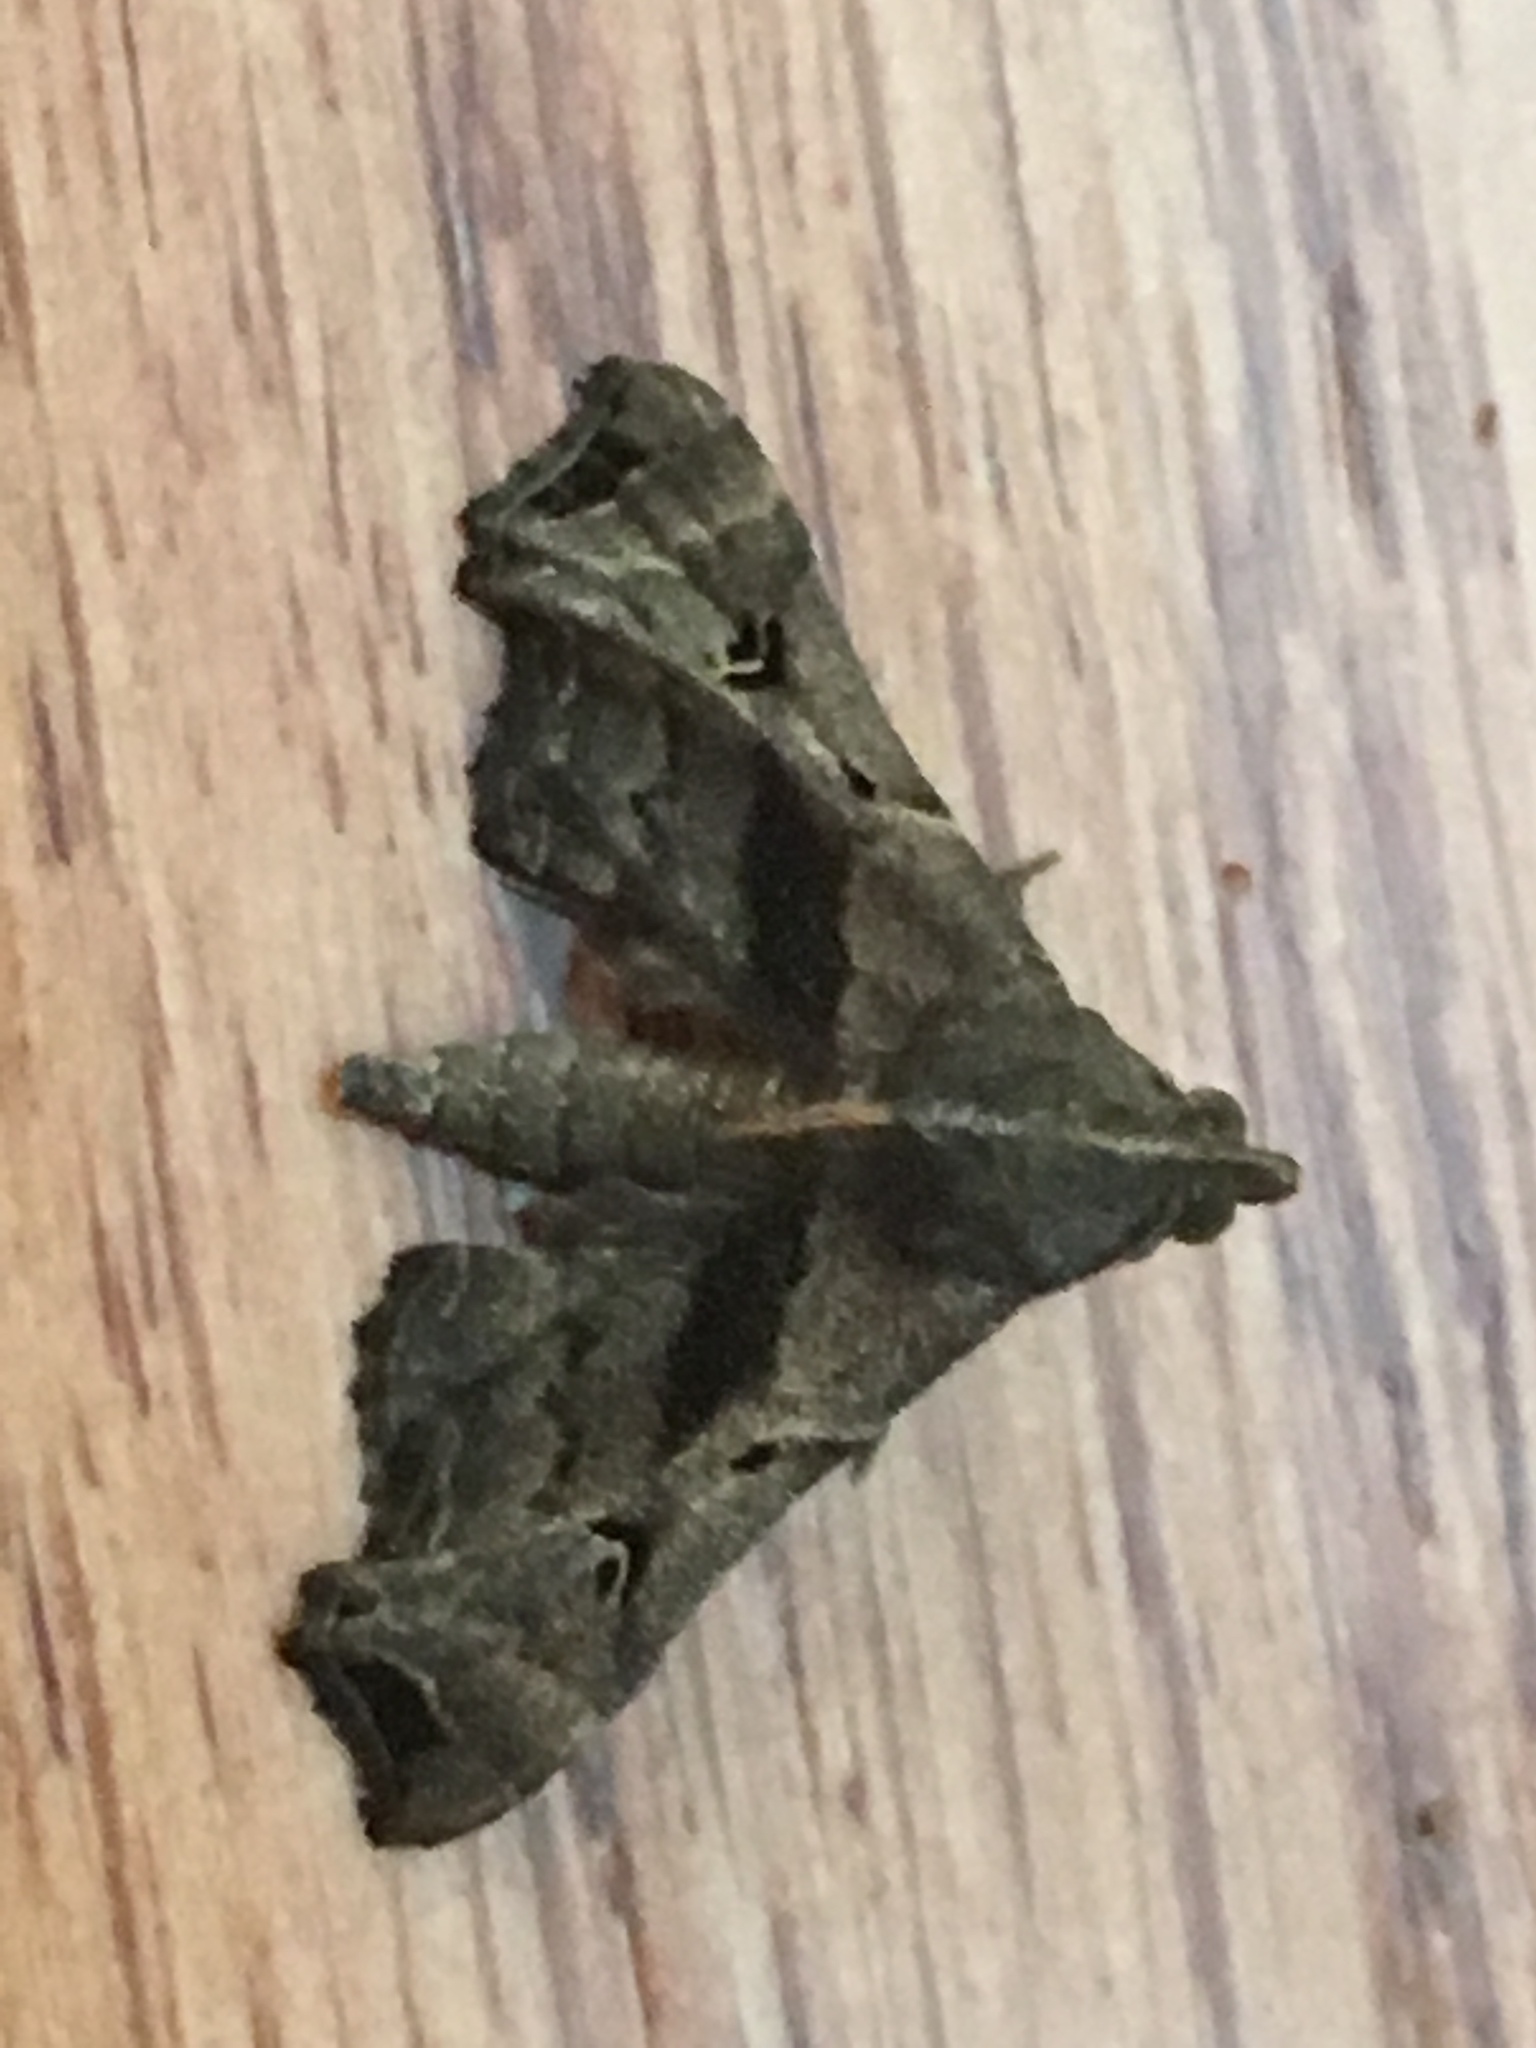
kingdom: Animalia
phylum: Arthropoda
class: Insecta
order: Lepidoptera
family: Erebidae
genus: Palthis
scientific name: Palthis asopialis
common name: Faint-spotted palthis moth
